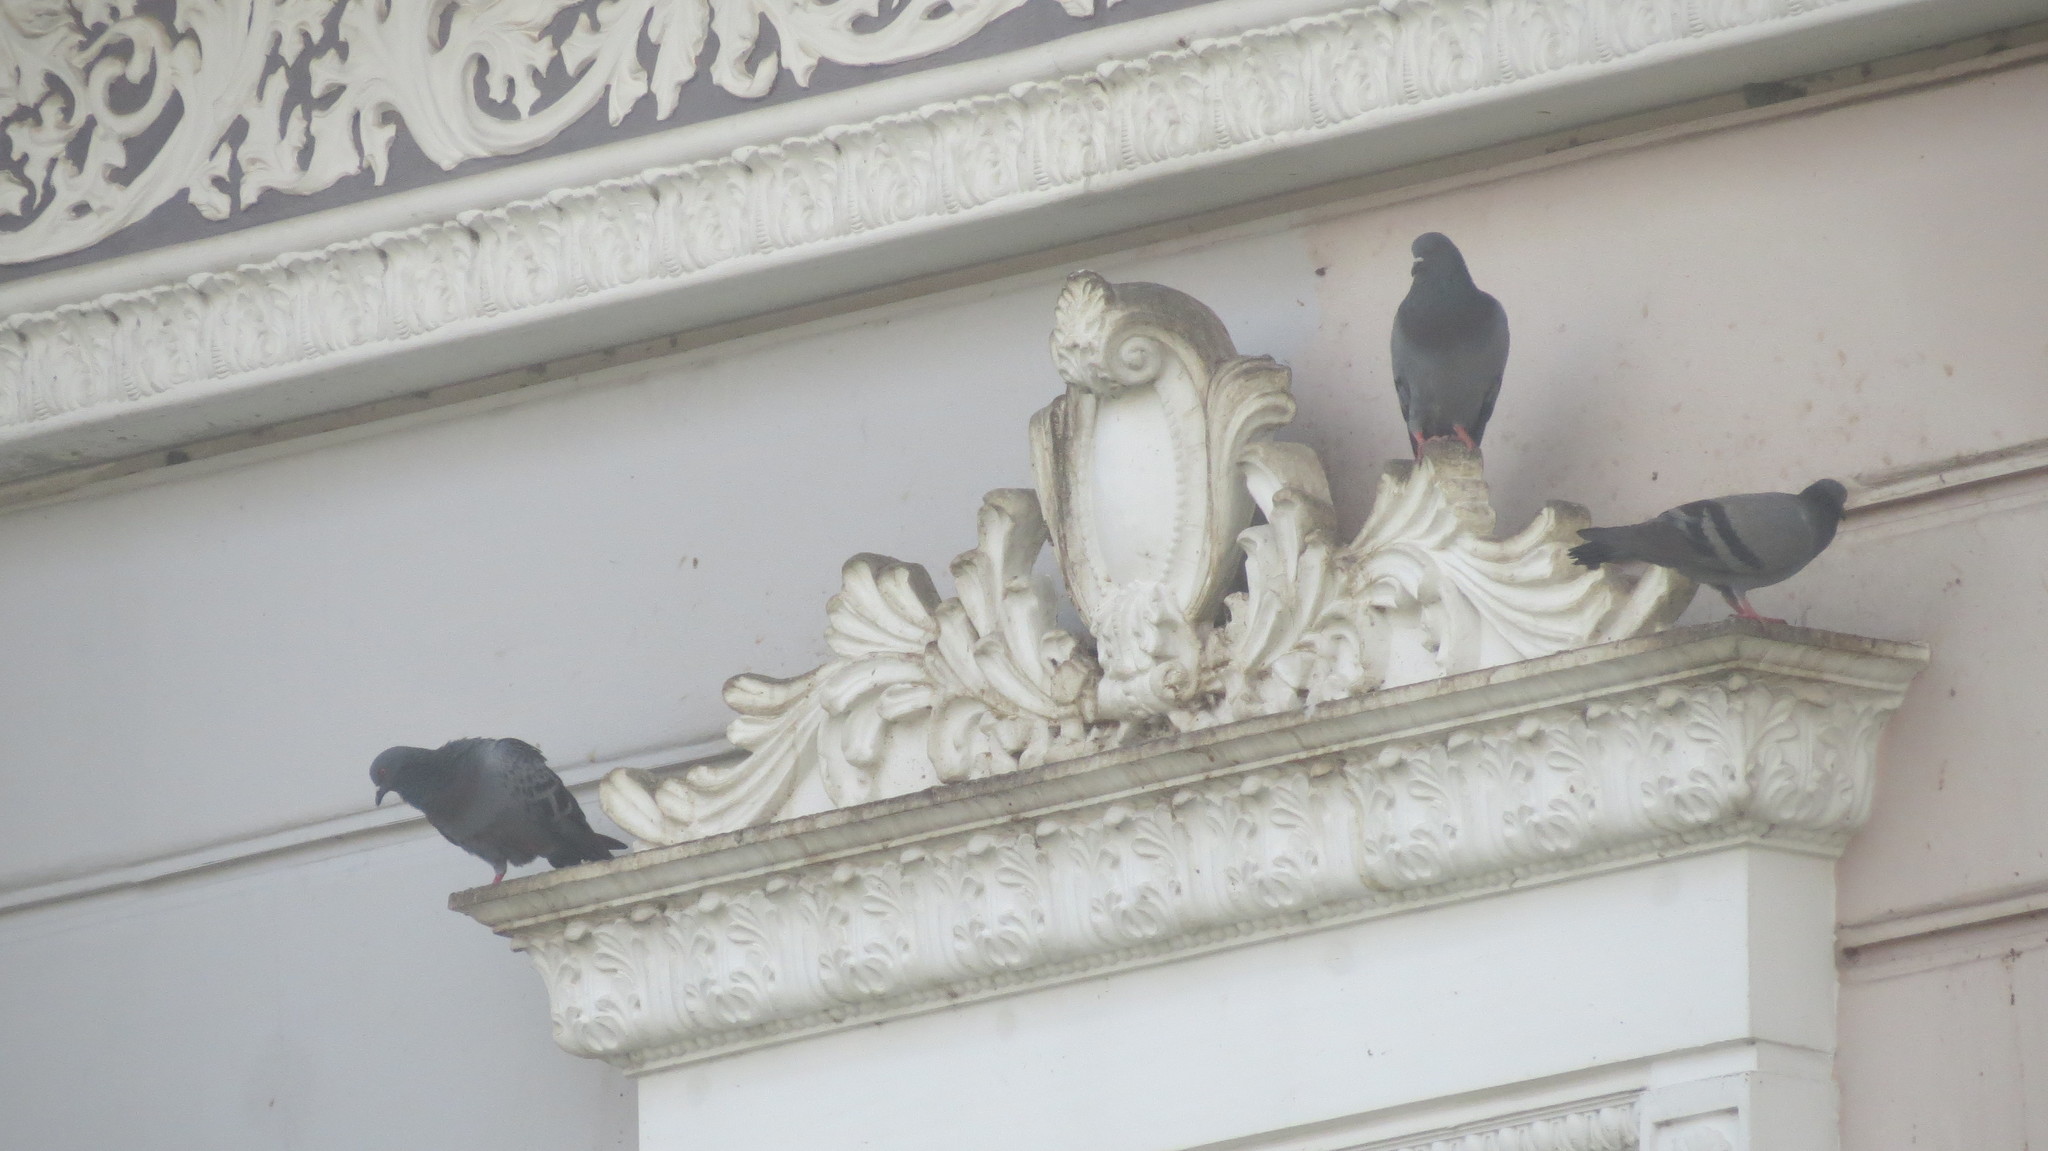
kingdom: Animalia
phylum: Chordata
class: Aves
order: Columbiformes
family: Columbidae
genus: Columba
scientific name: Columba livia
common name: Rock pigeon
